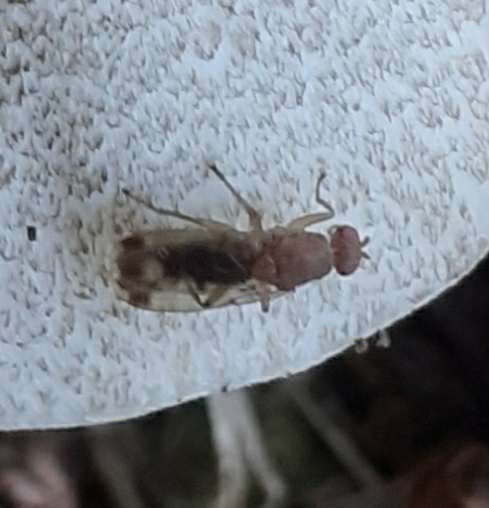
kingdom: Animalia
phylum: Arthropoda
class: Insecta
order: Diptera
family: Heleomyzidae
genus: Suillia
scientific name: Suillia variegata
